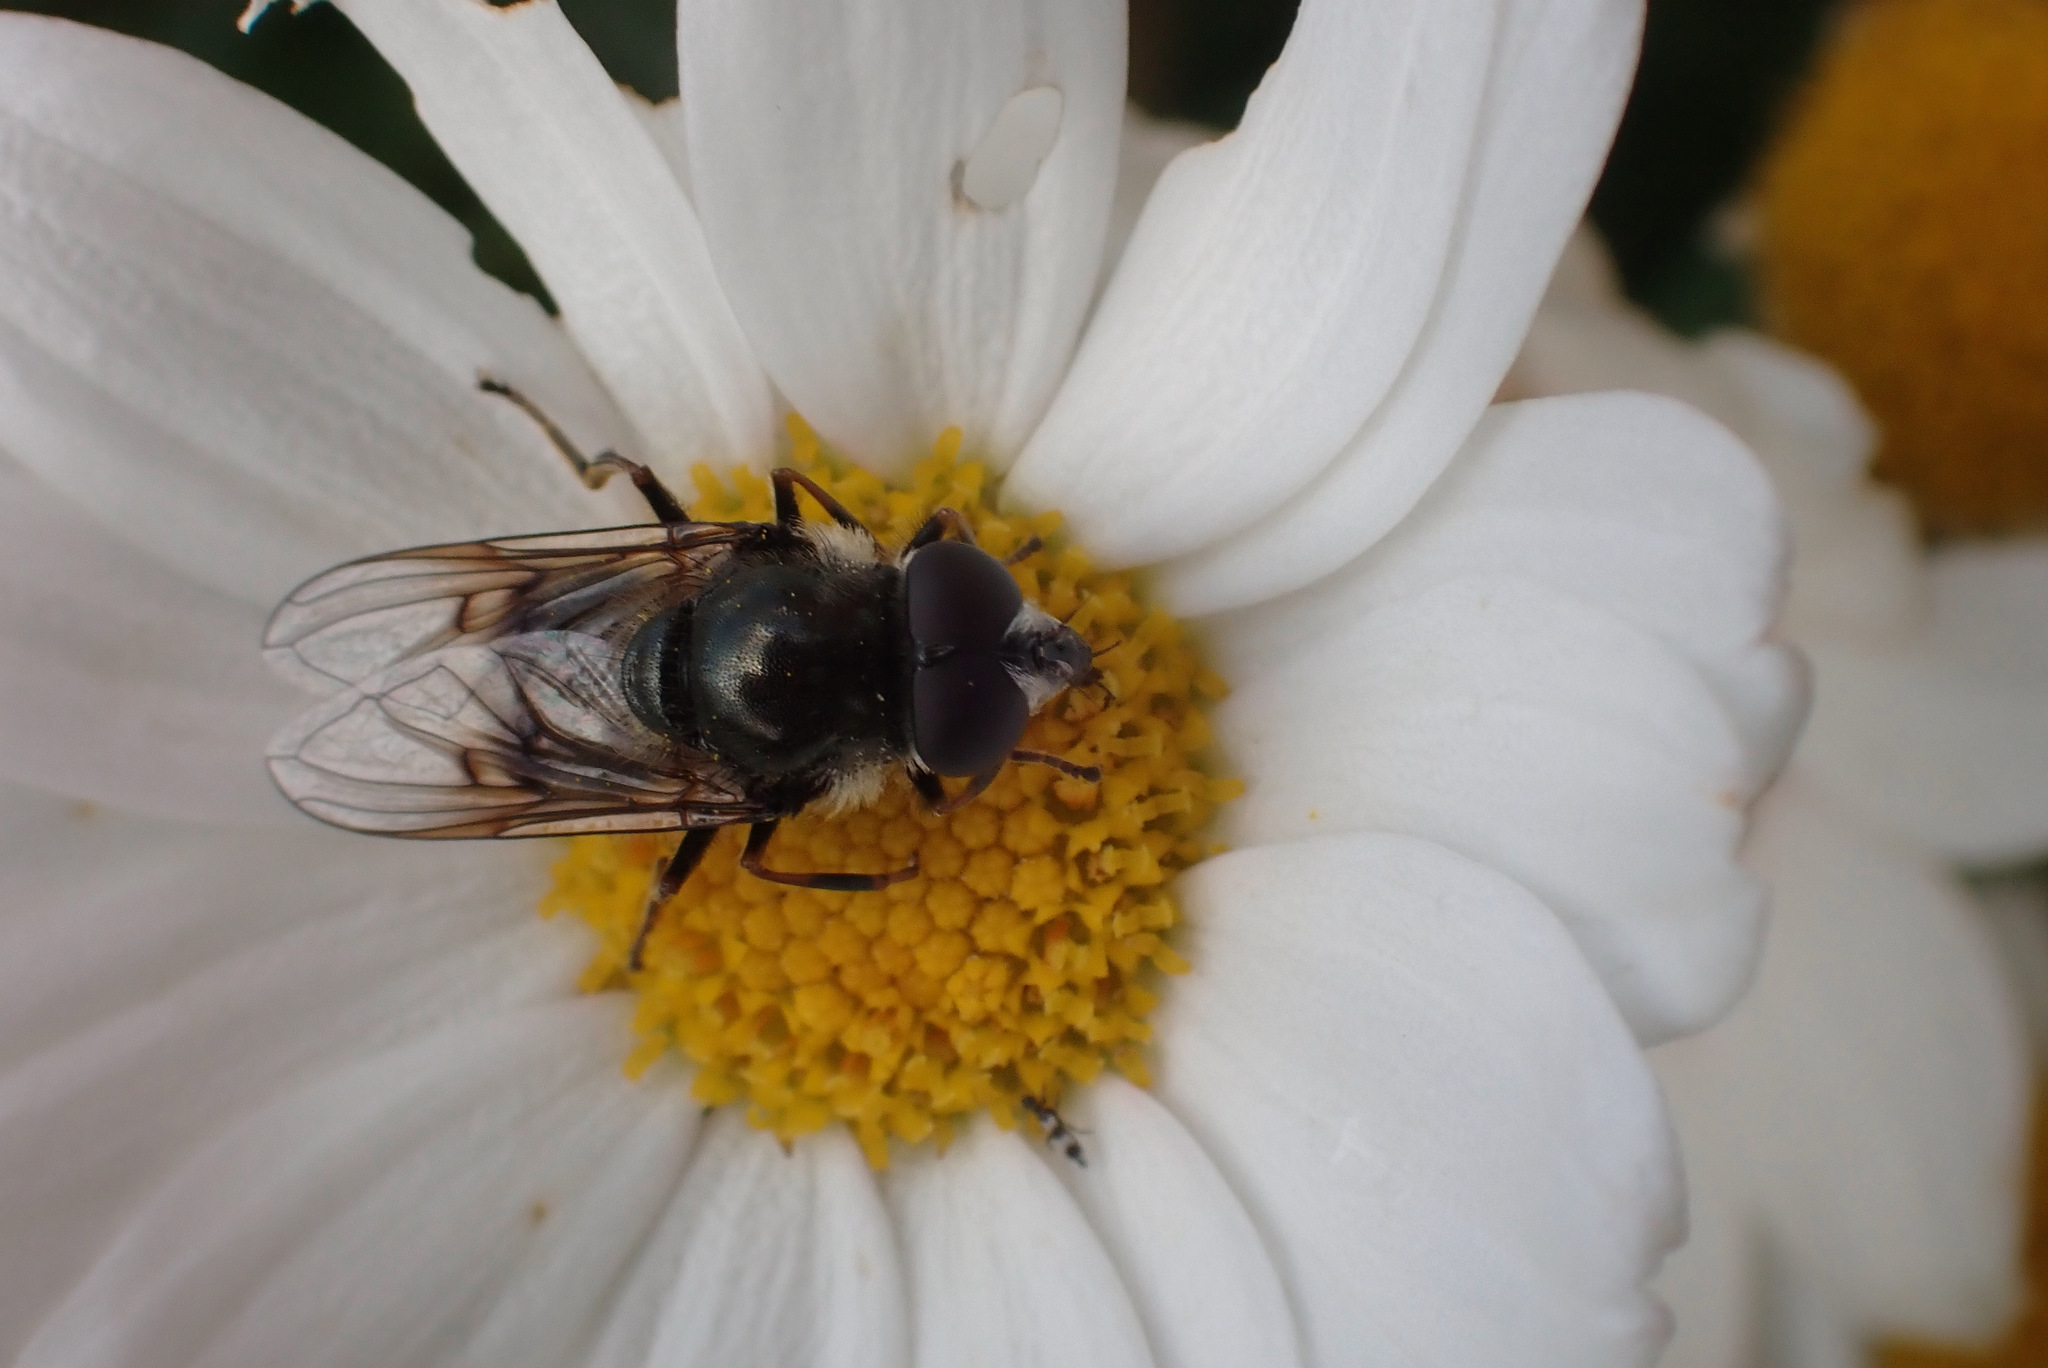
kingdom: Animalia
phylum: Arthropoda
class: Insecta
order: Diptera
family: Syrphidae
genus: Cheilosia
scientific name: Cheilosia caerulescens
